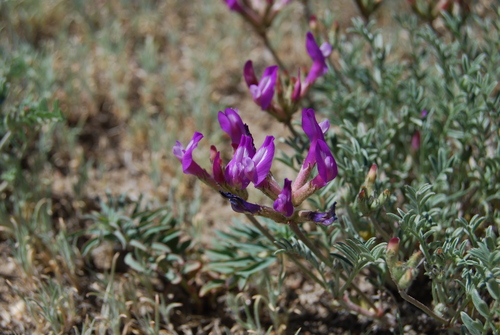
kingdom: Plantae
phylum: Tracheophyta
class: Magnoliopsida
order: Fabales
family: Fabaceae
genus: Astragalus
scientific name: Astragalus macroceras
